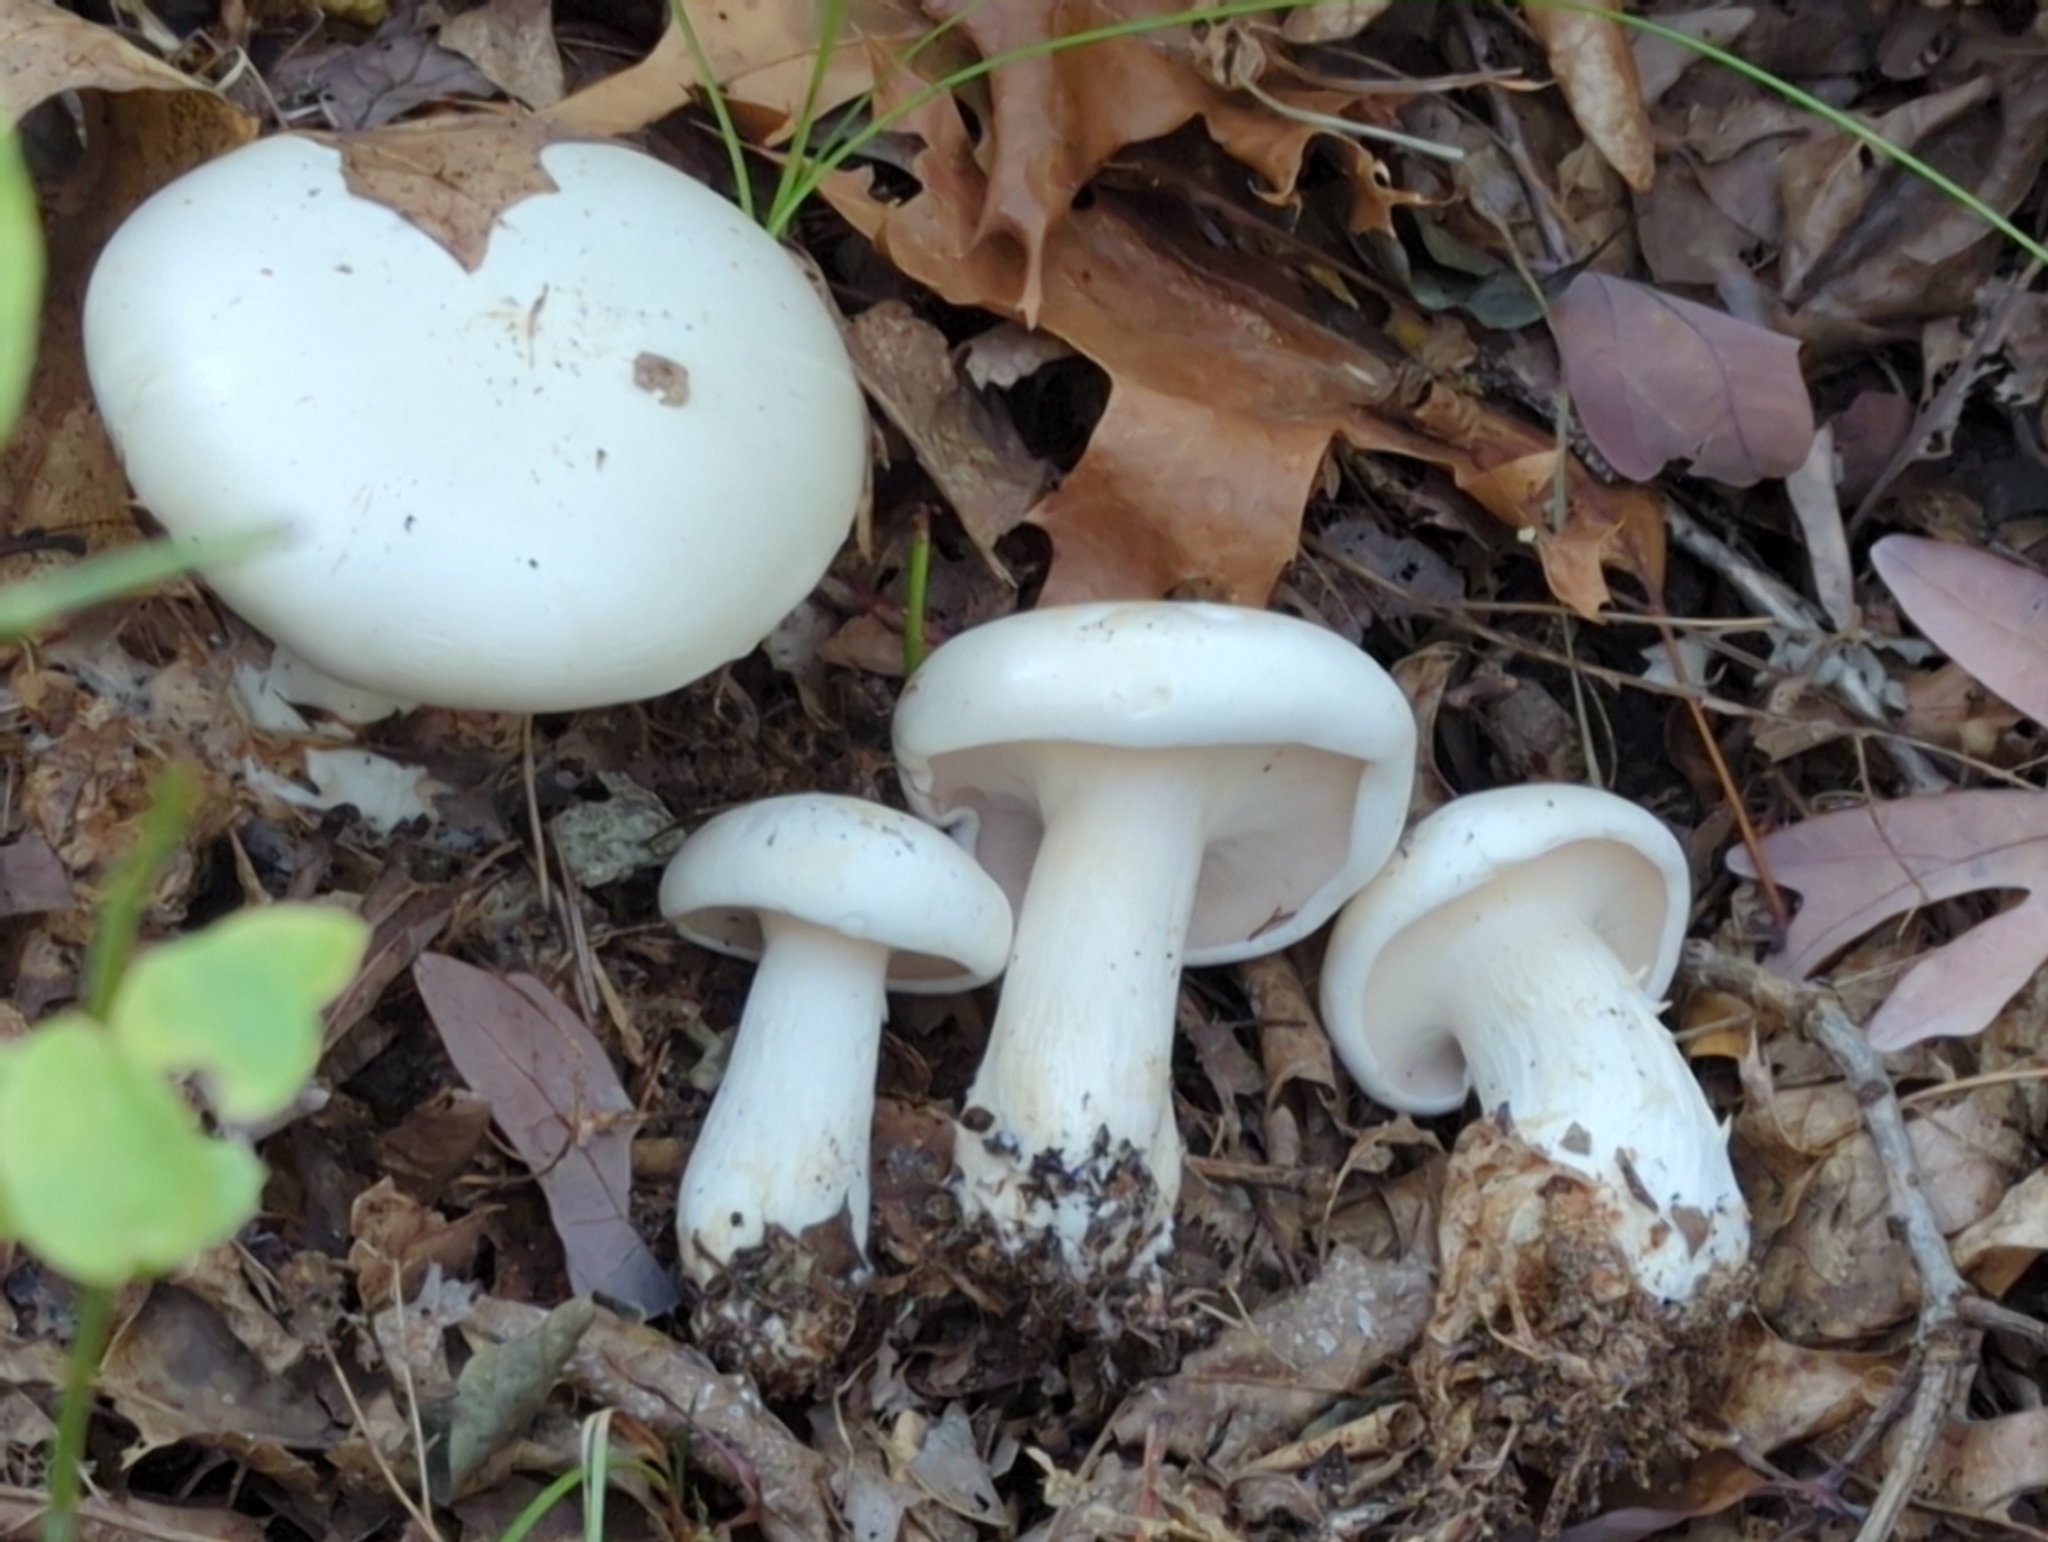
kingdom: Fungi
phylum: Basidiomycota
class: Agaricomycetes
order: Agaricales
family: Tricholomataceae
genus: Clitocybe
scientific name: Clitocybe robusta
